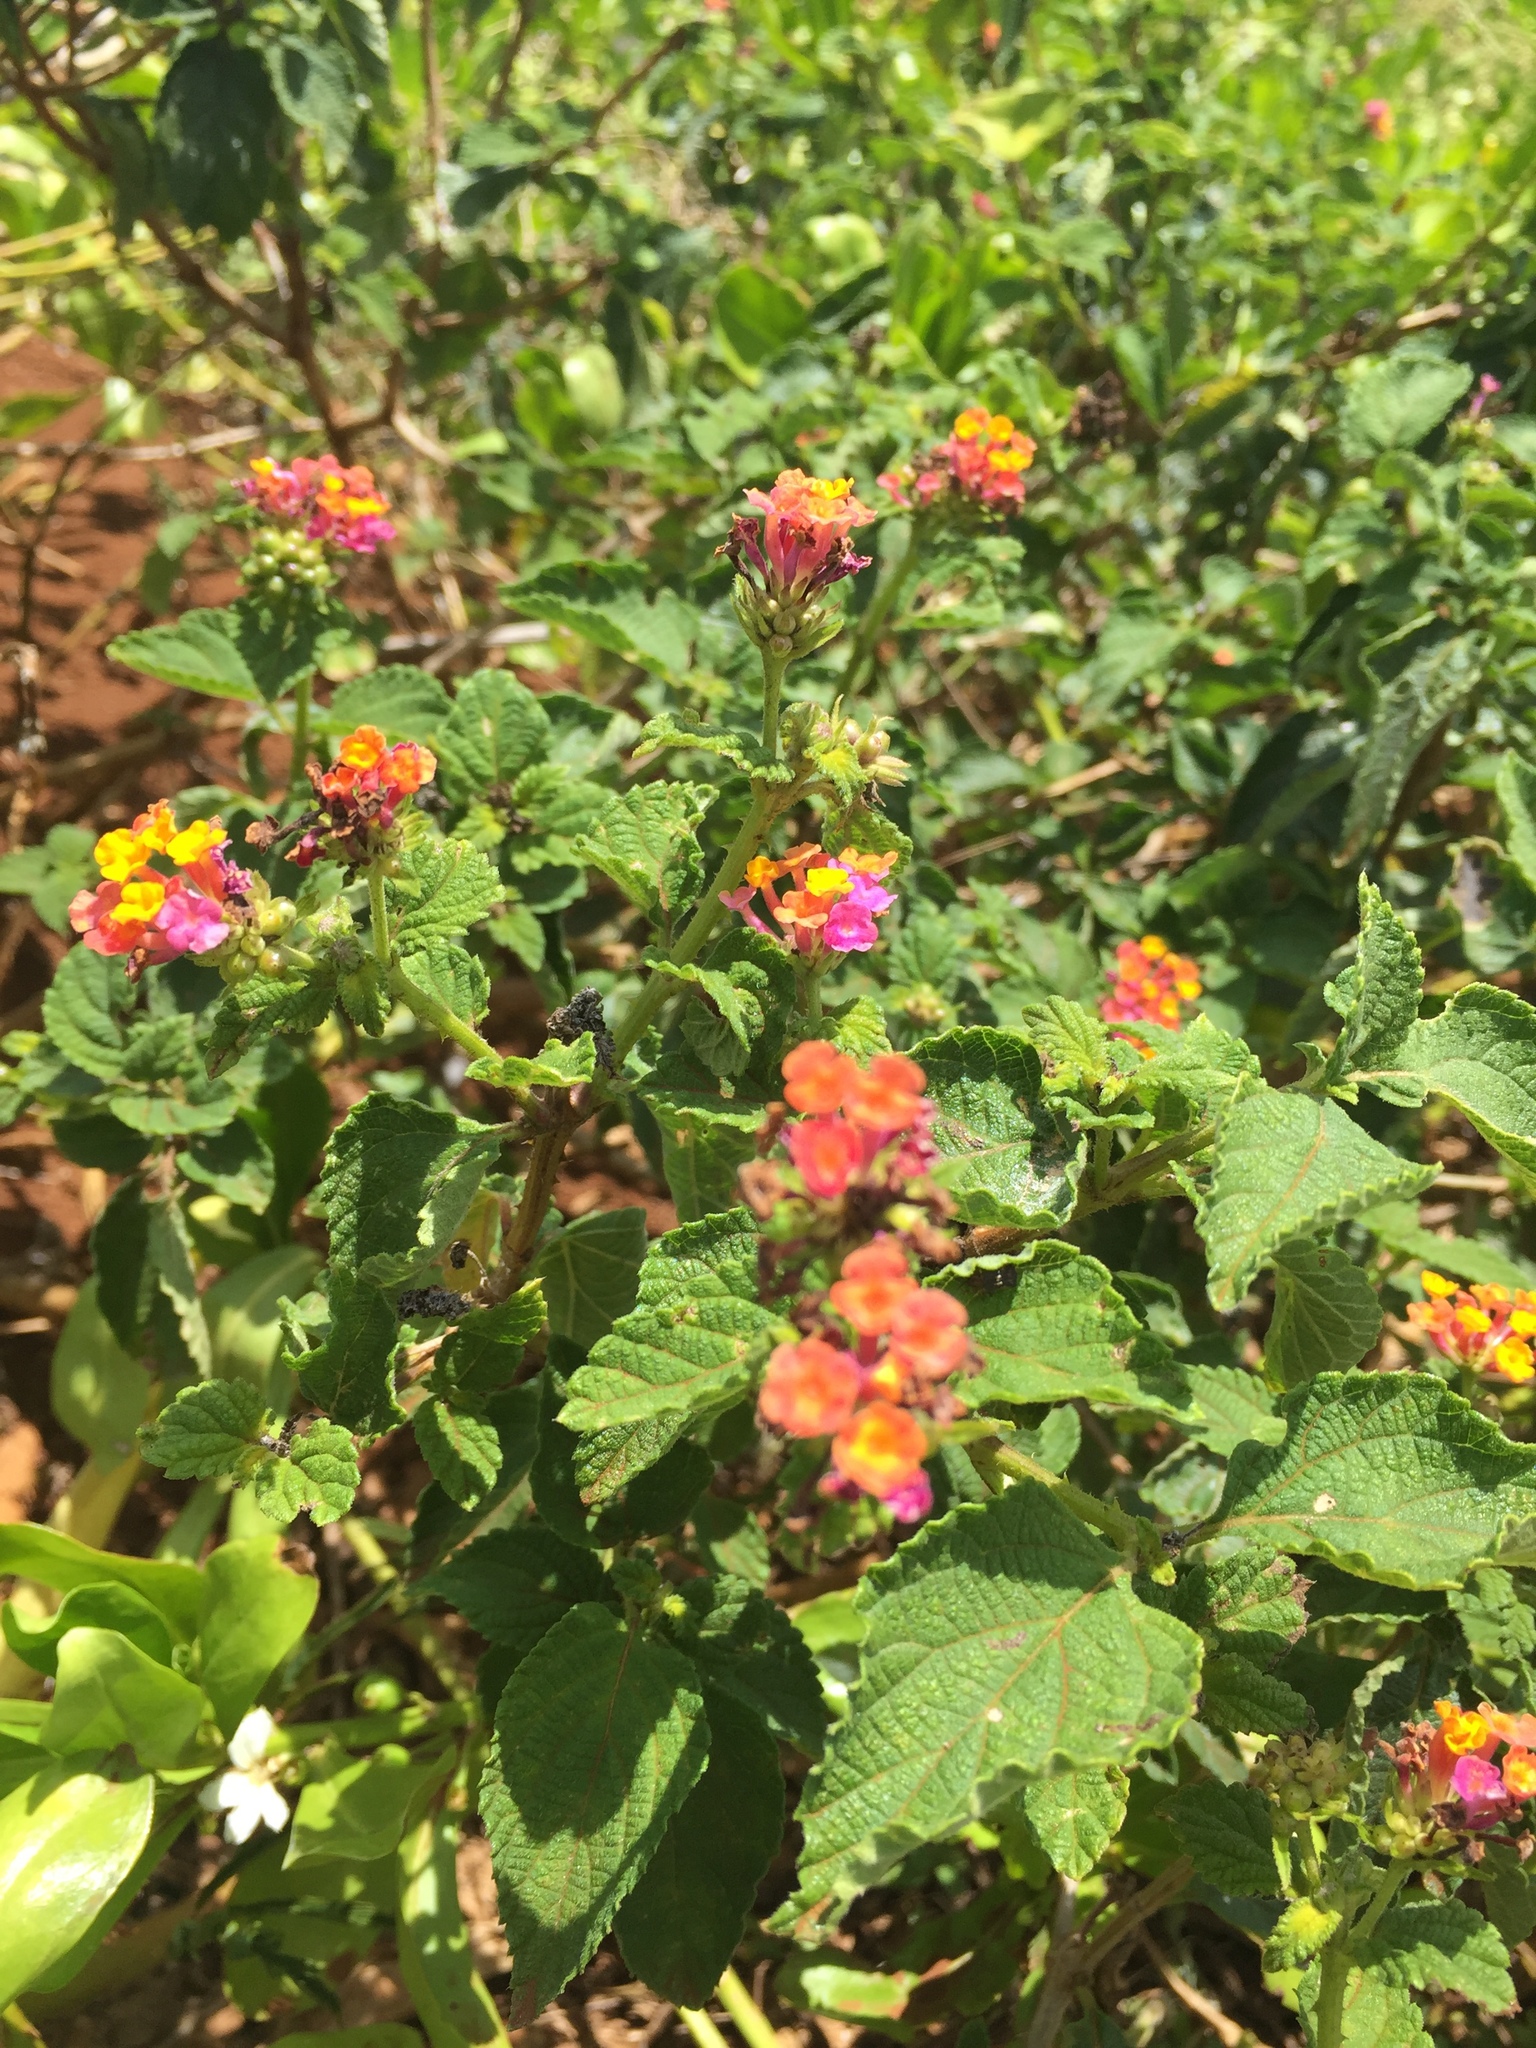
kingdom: Plantae
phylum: Tracheophyta
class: Magnoliopsida
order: Lamiales
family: Verbenaceae
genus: Lantana
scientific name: Lantana camara
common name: Lantana
